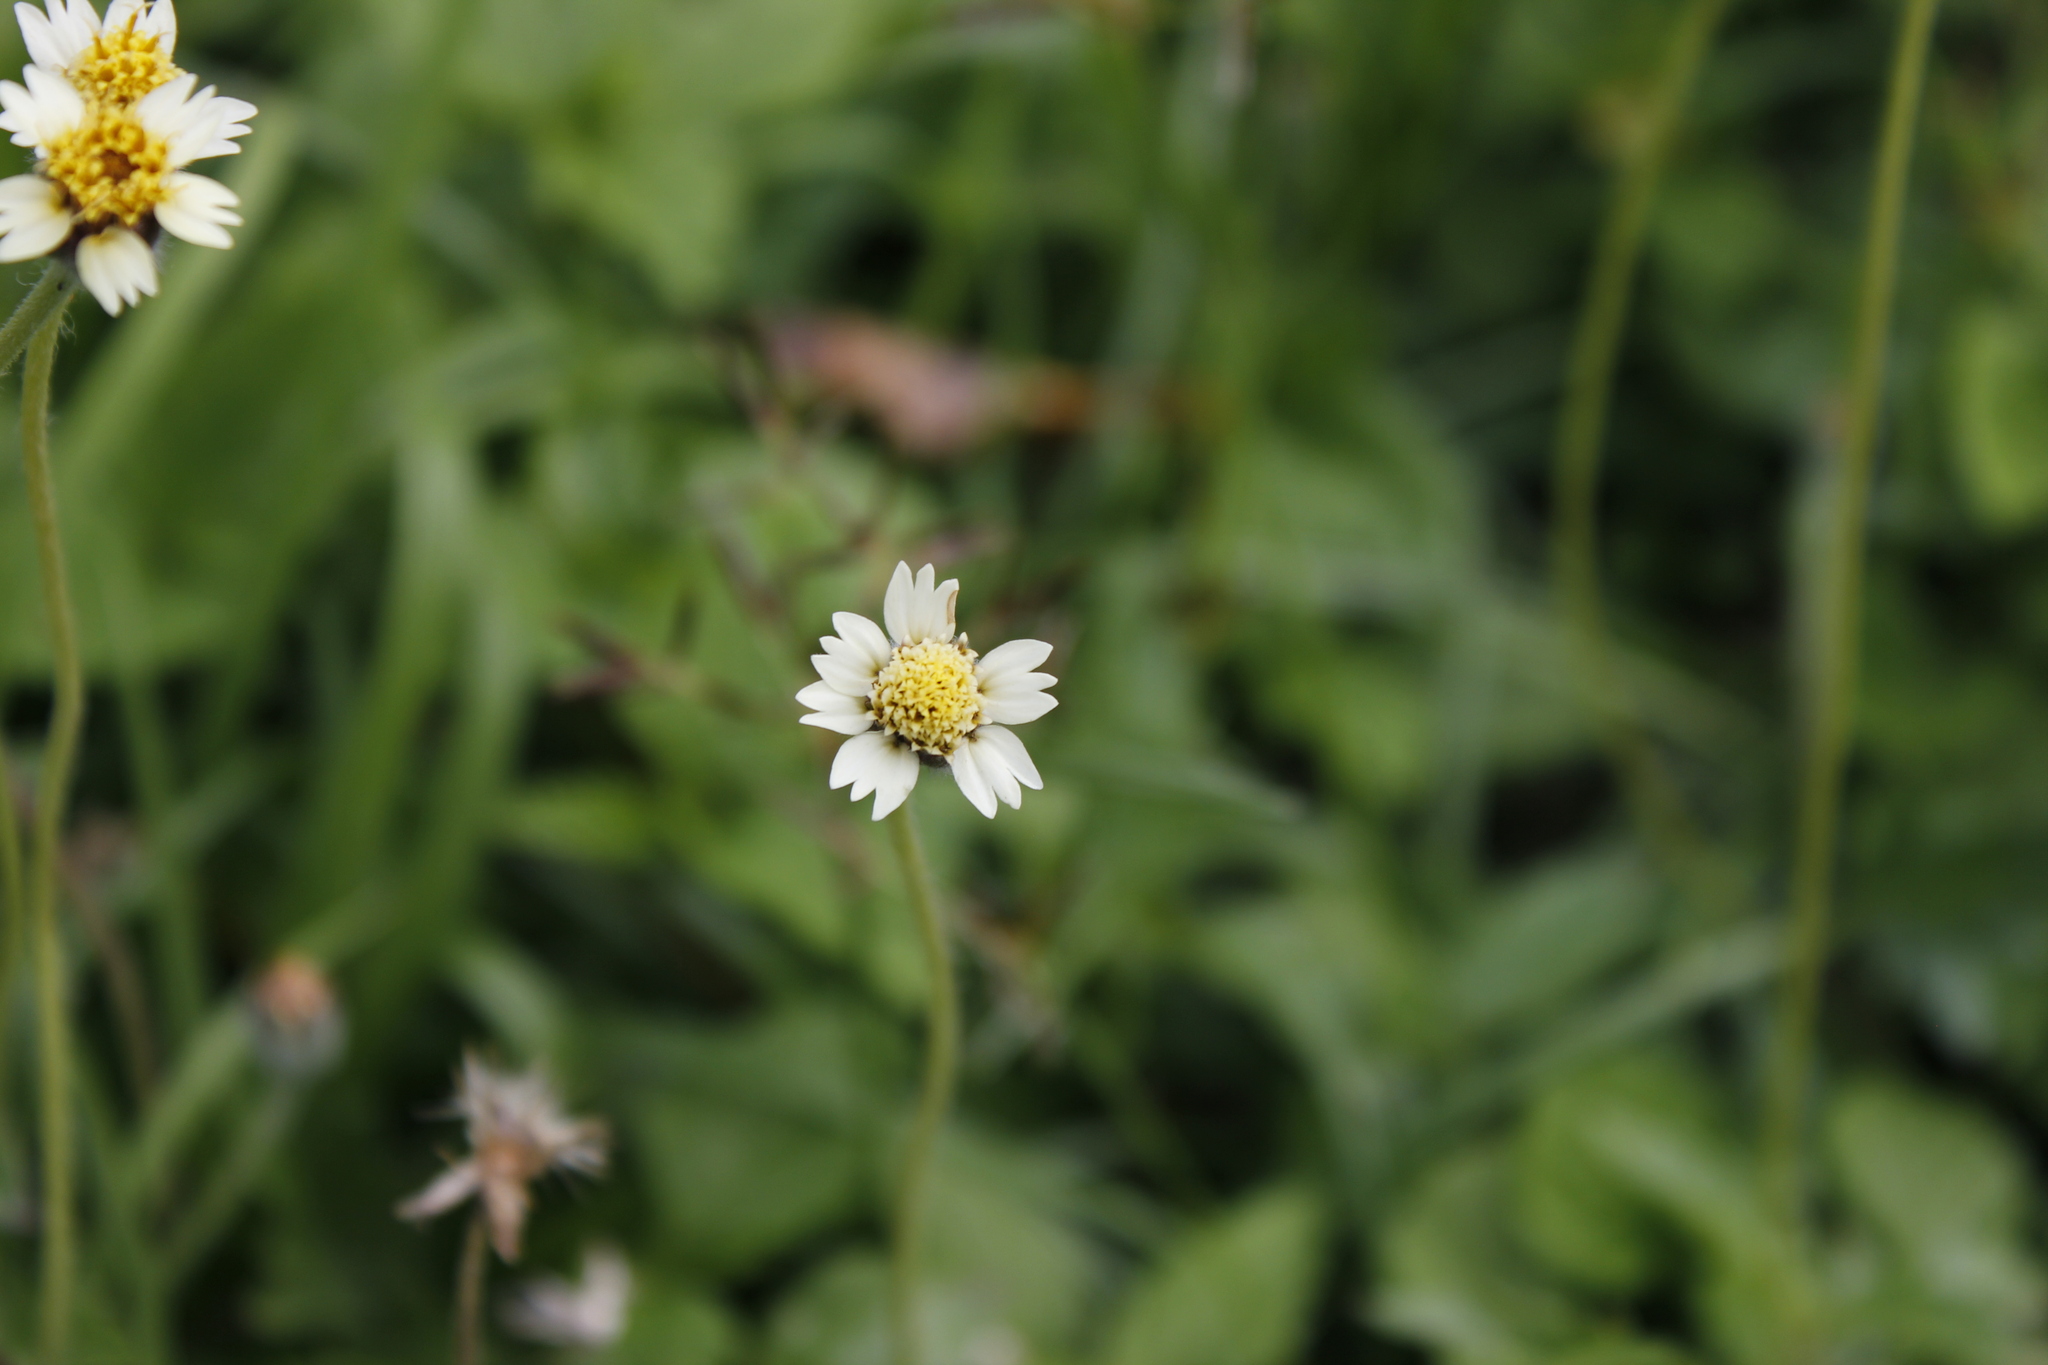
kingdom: Plantae
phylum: Tracheophyta
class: Magnoliopsida
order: Asterales
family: Asteraceae
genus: Tridax
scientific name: Tridax procumbens
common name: Coatbuttons
